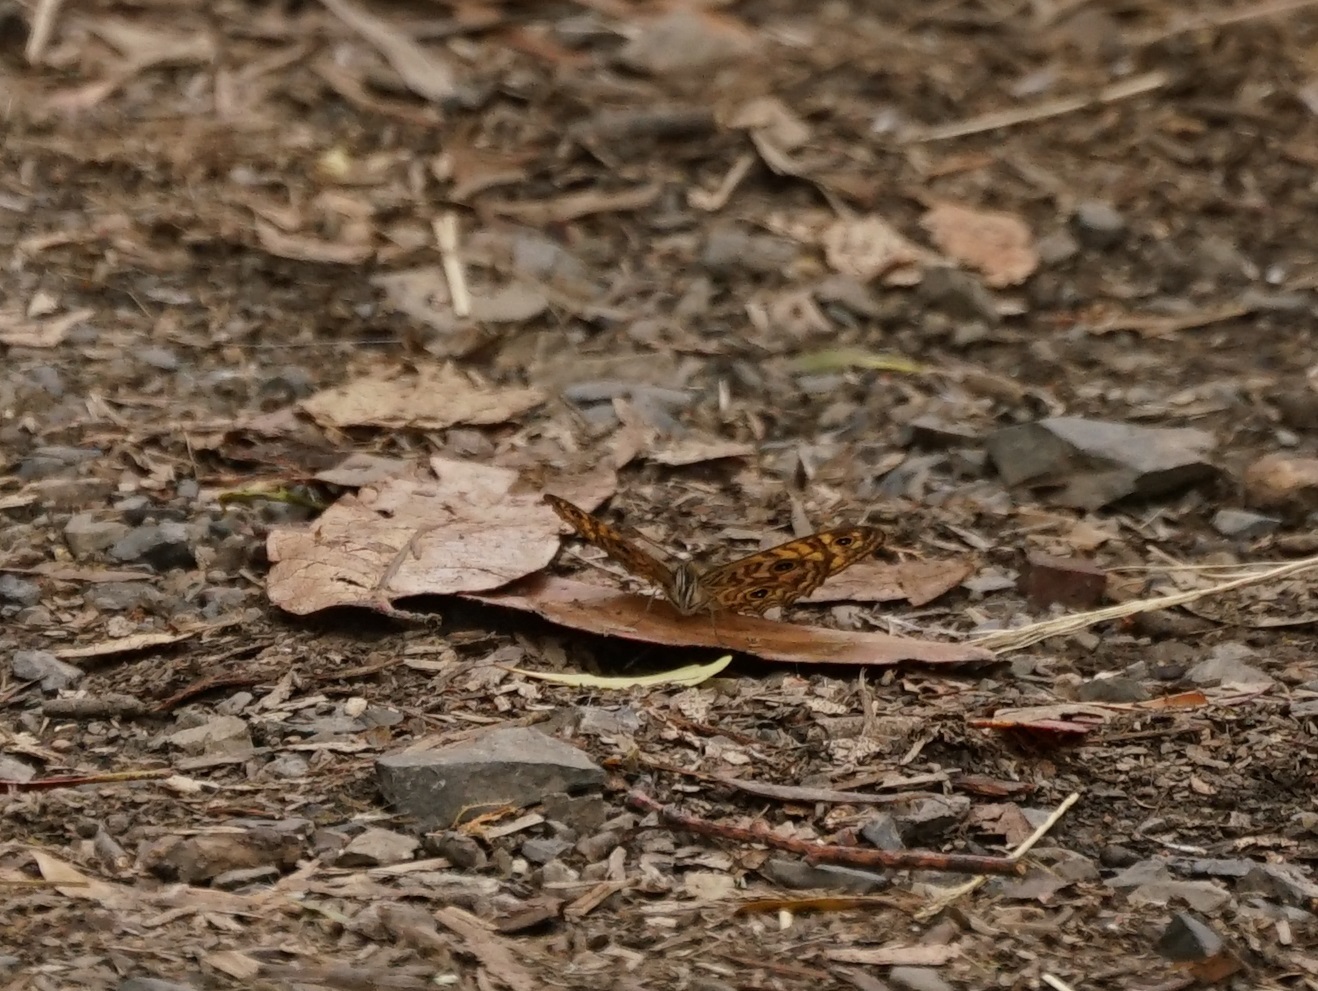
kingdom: Animalia
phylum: Arthropoda
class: Insecta
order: Lepidoptera
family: Nymphalidae
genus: Geitoneura
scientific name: Geitoneura acantha
